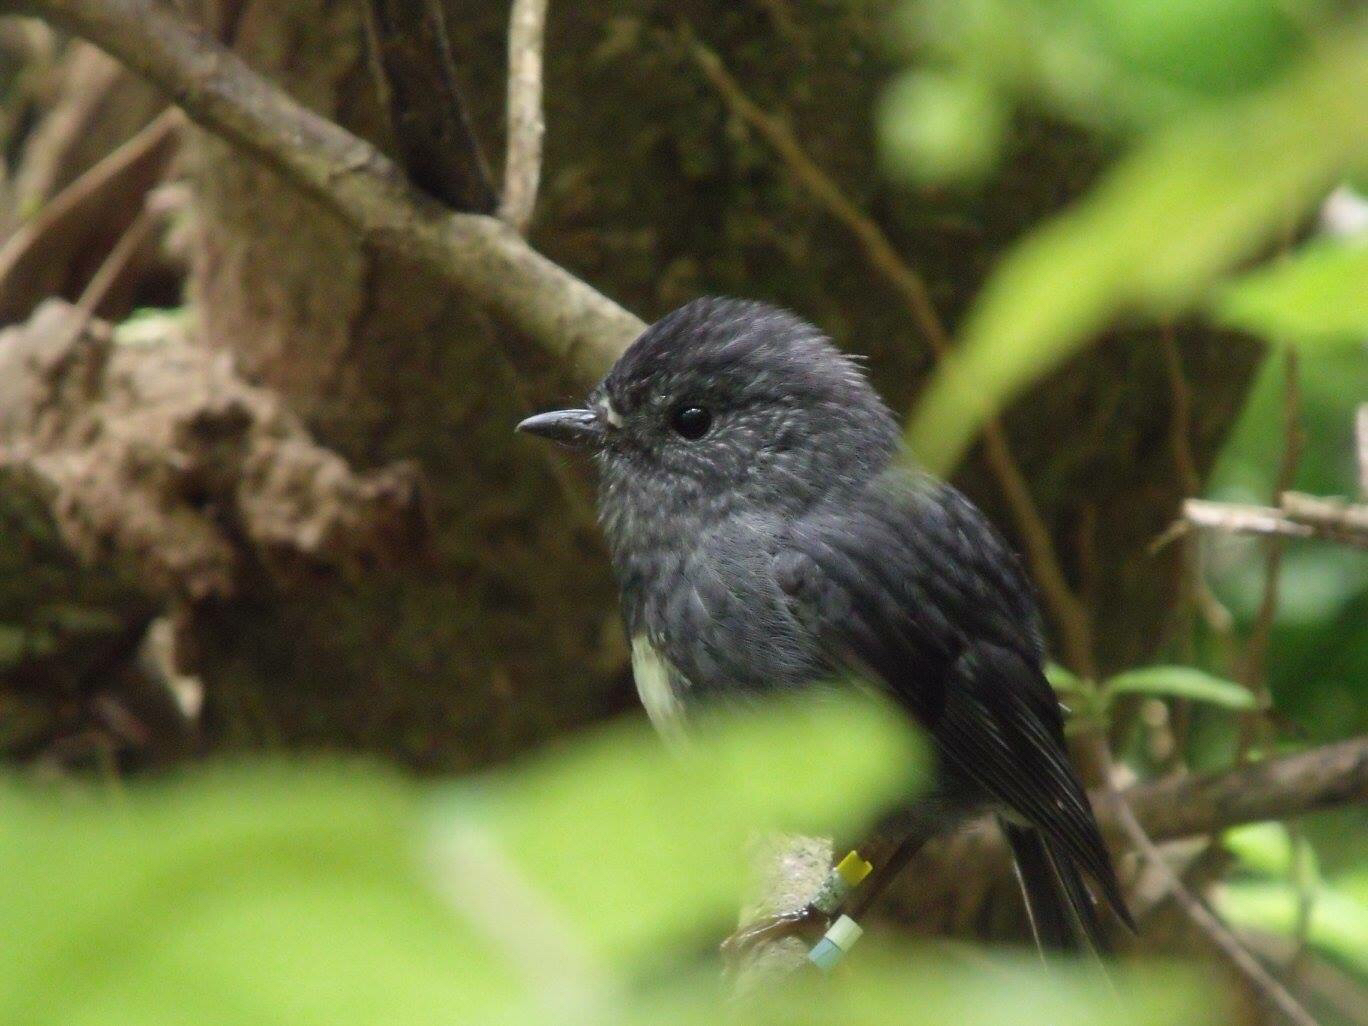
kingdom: Animalia
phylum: Chordata
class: Aves
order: Passeriformes
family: Petroicidae
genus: Petroica
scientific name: Petroica australis
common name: New zealand robin
